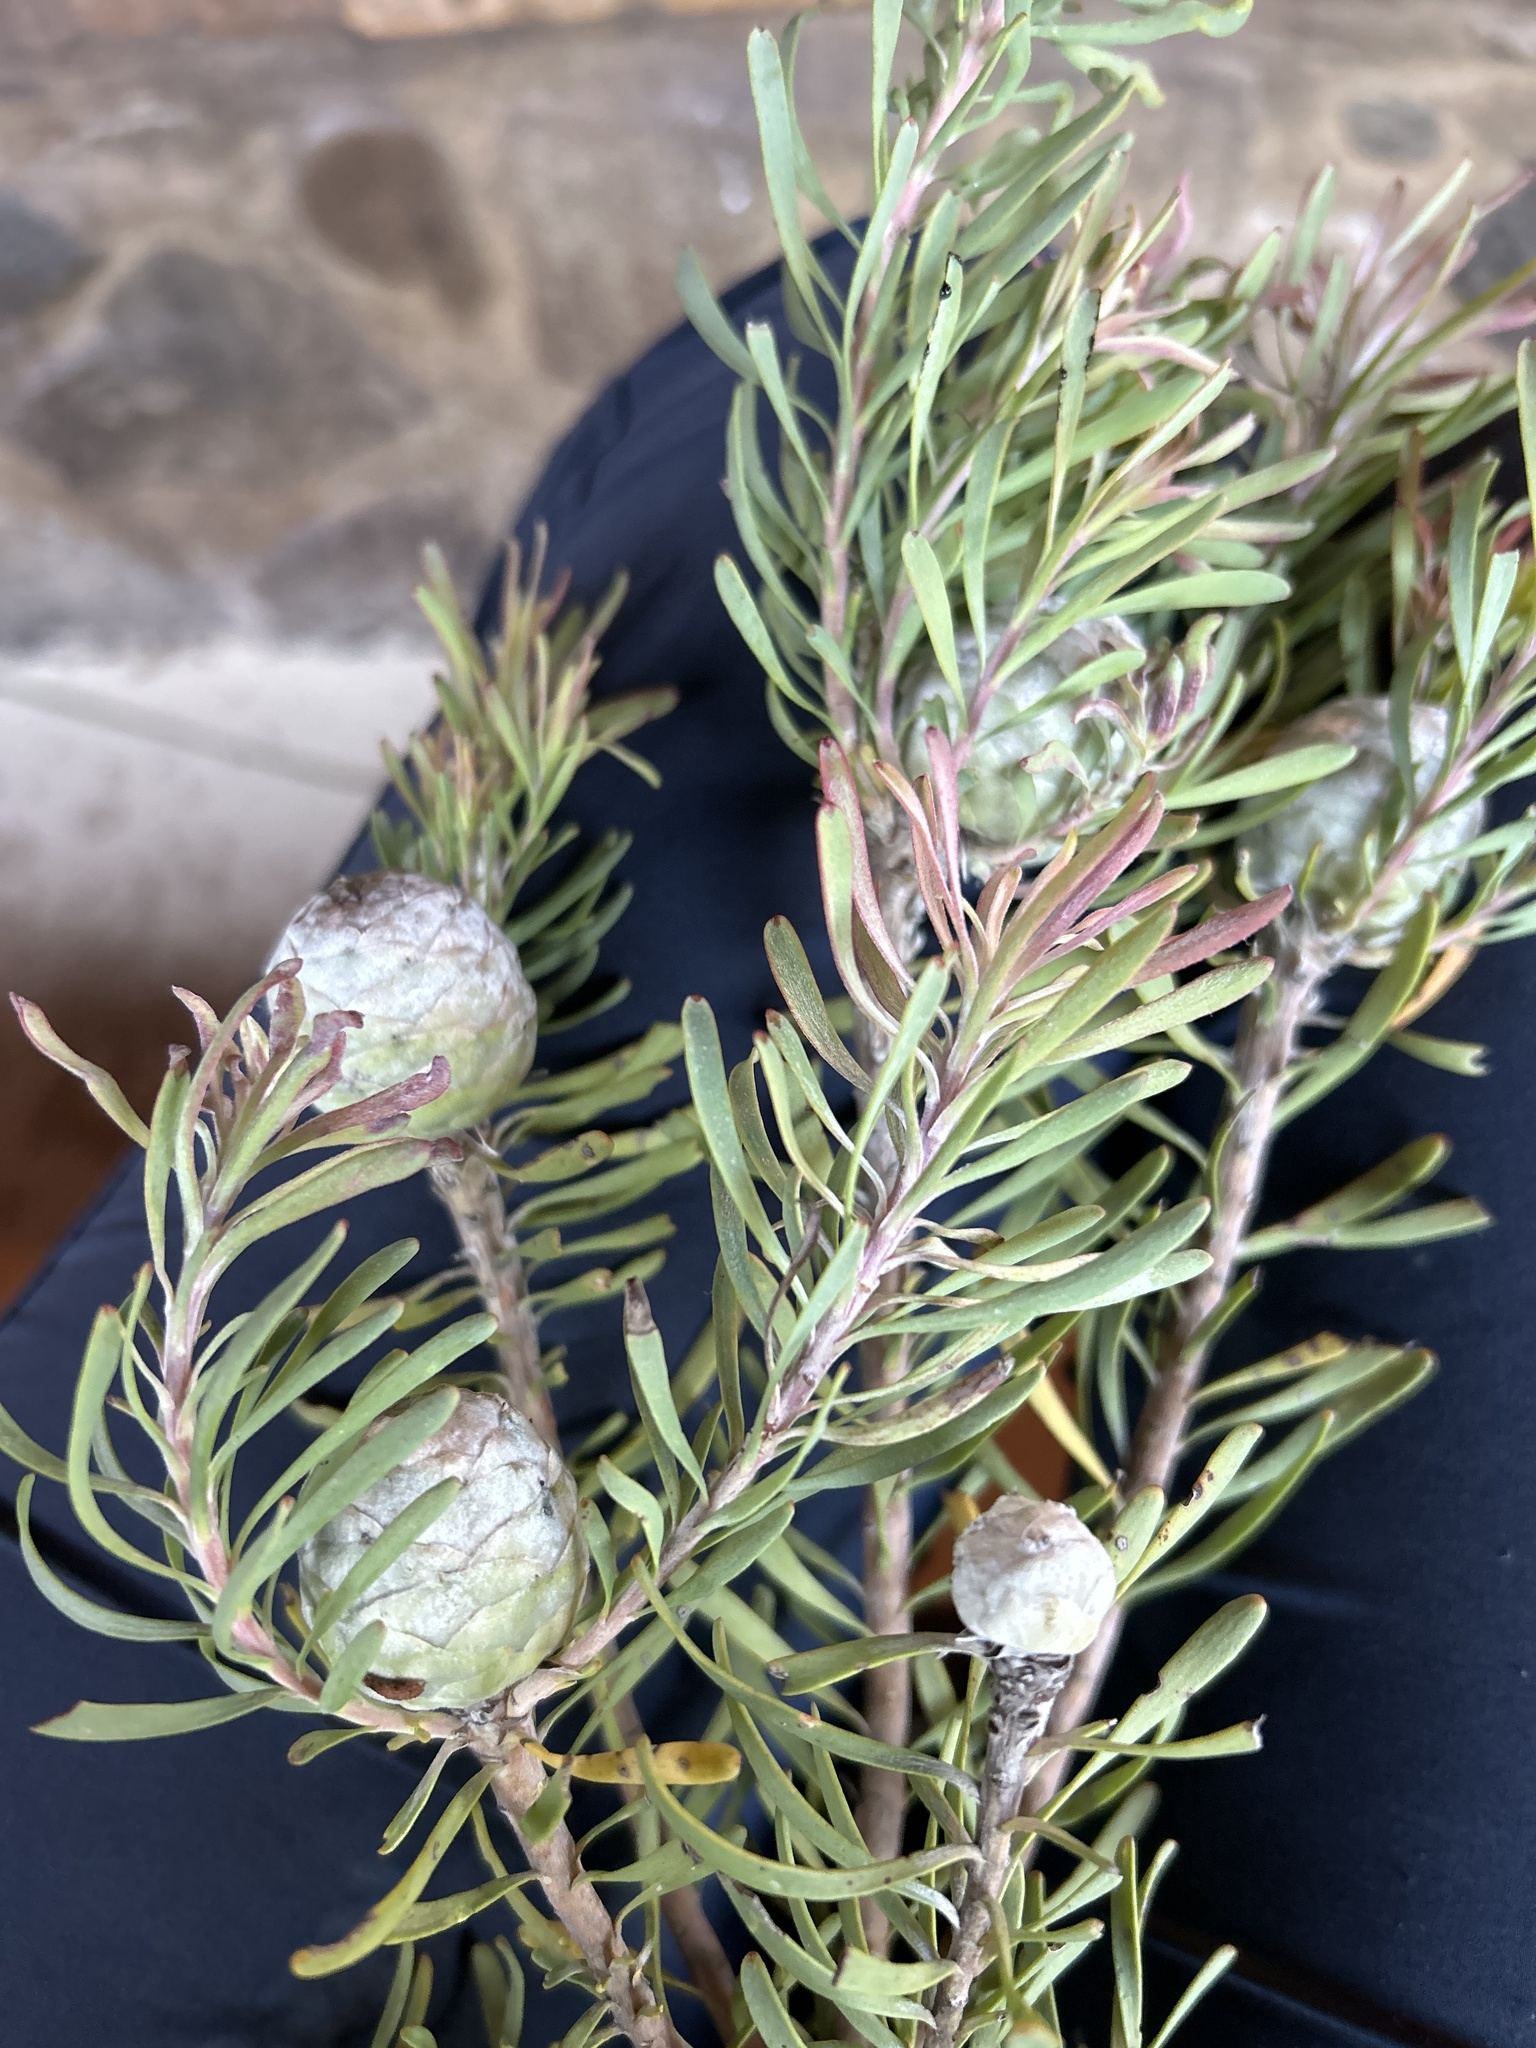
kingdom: Plantae
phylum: Tracheophyta
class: Magnoliopsida
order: Proteales
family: Proteaceae
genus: Leucadendron
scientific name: Leucadendron galpinii
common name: Hairless conebush
